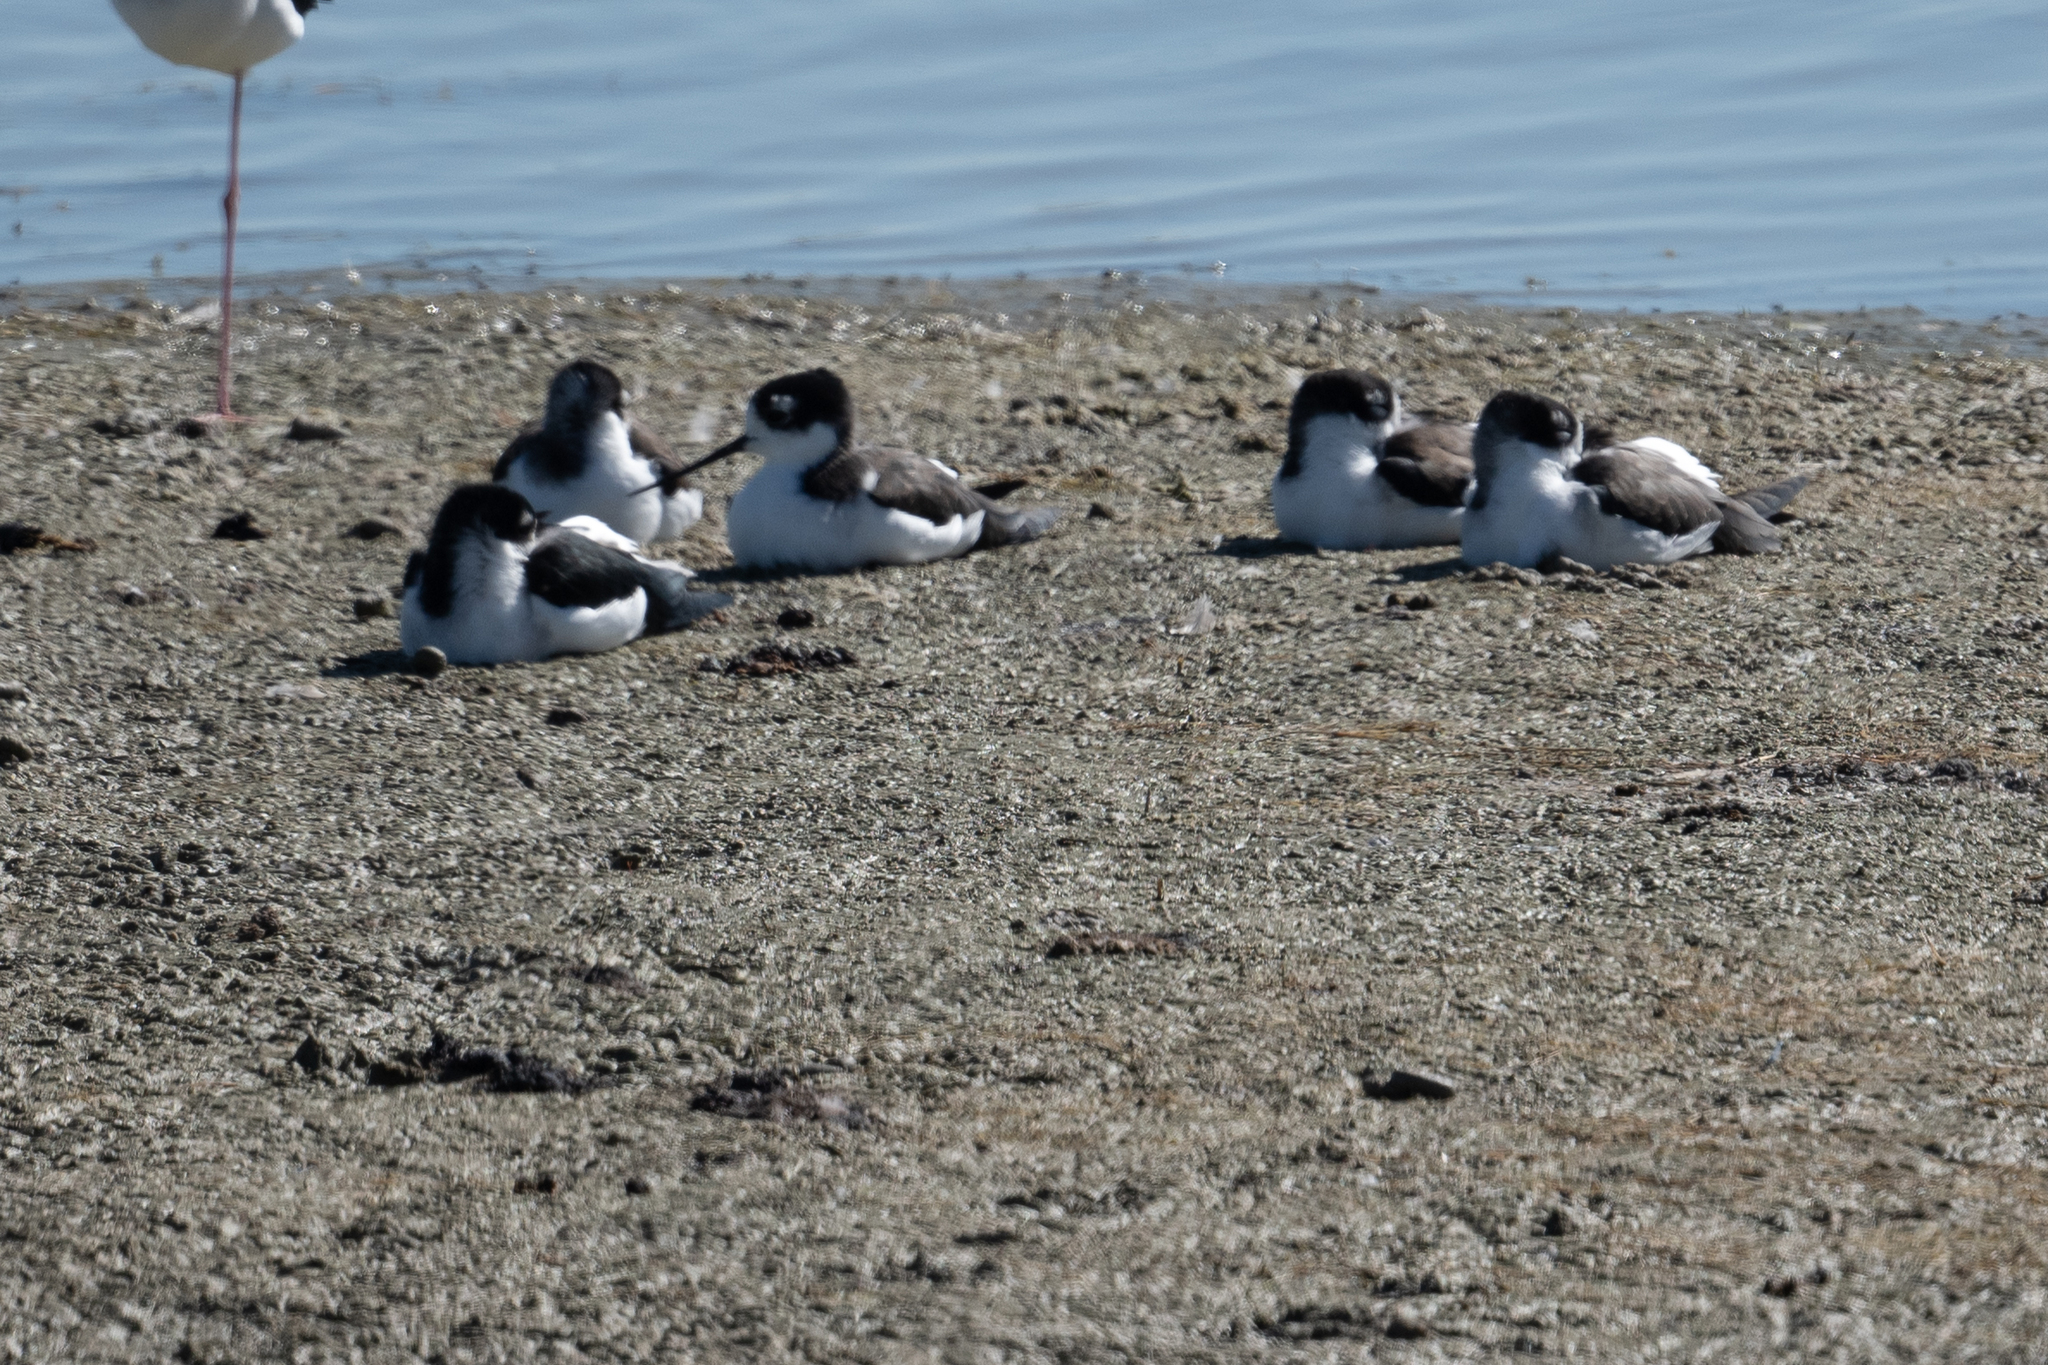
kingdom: Animalia
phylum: Chordata
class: Aves
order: Charadriiformes
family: Recurvirostridae
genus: Himantopus
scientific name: Himantopus mexicanus
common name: Black-necked stilt
